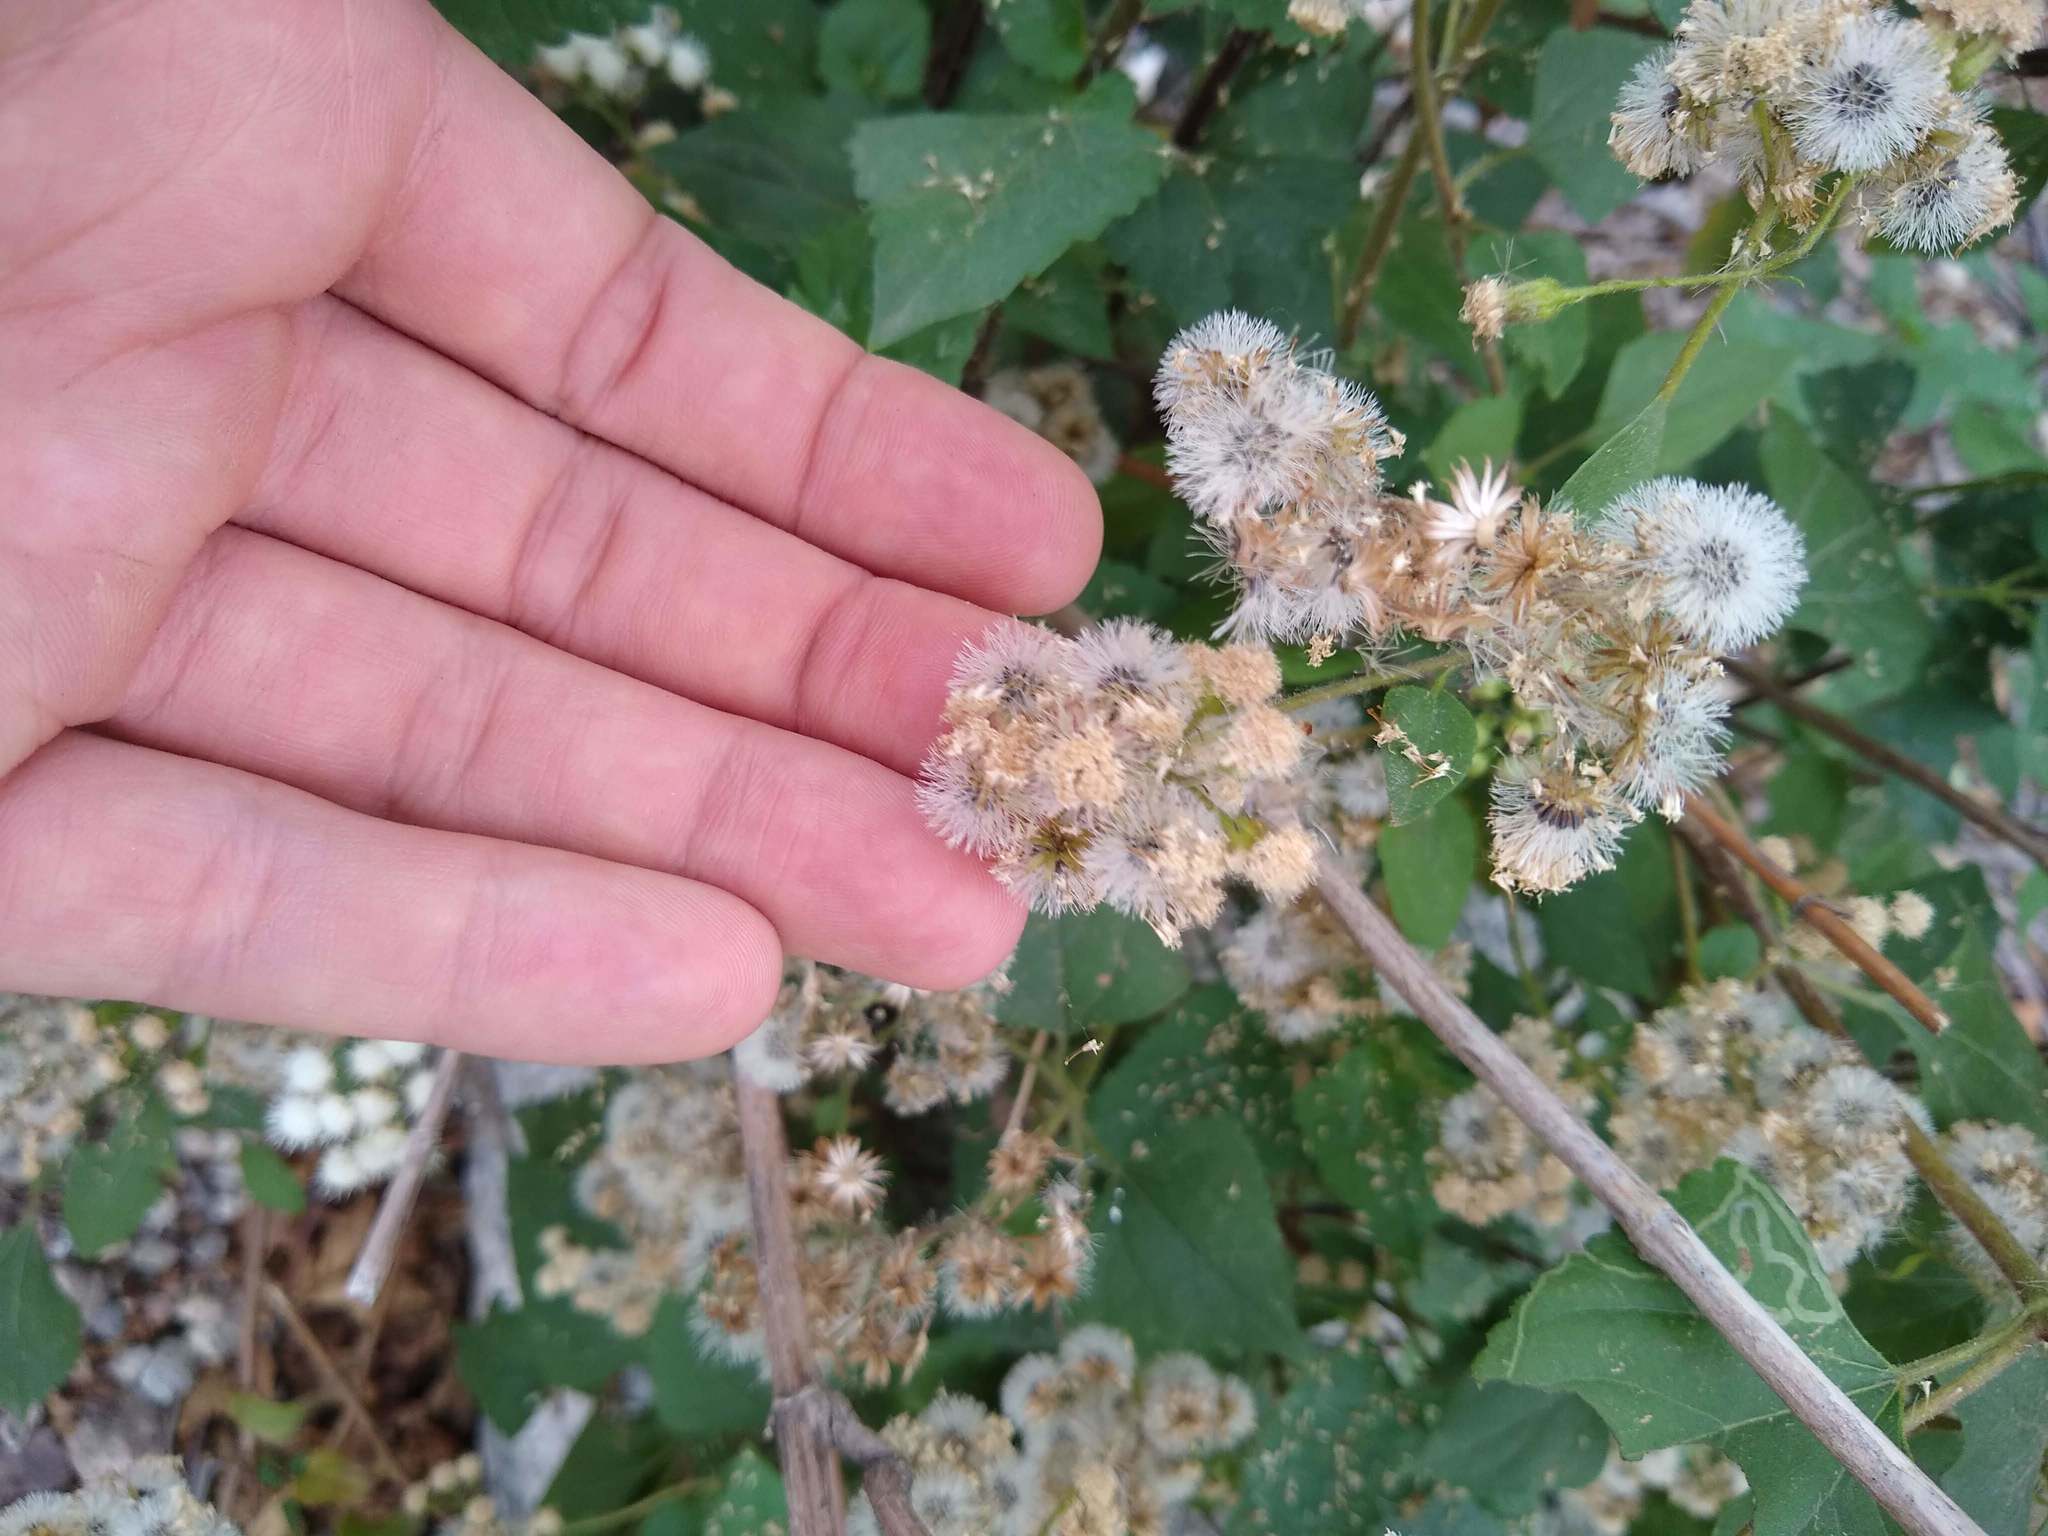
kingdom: Plantae
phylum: Tracheophyta
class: Magnoliopsida
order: Asterales
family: Asteraceae
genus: Ageratina
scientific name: Ageratina adenophora
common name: Sticky snakeroot
